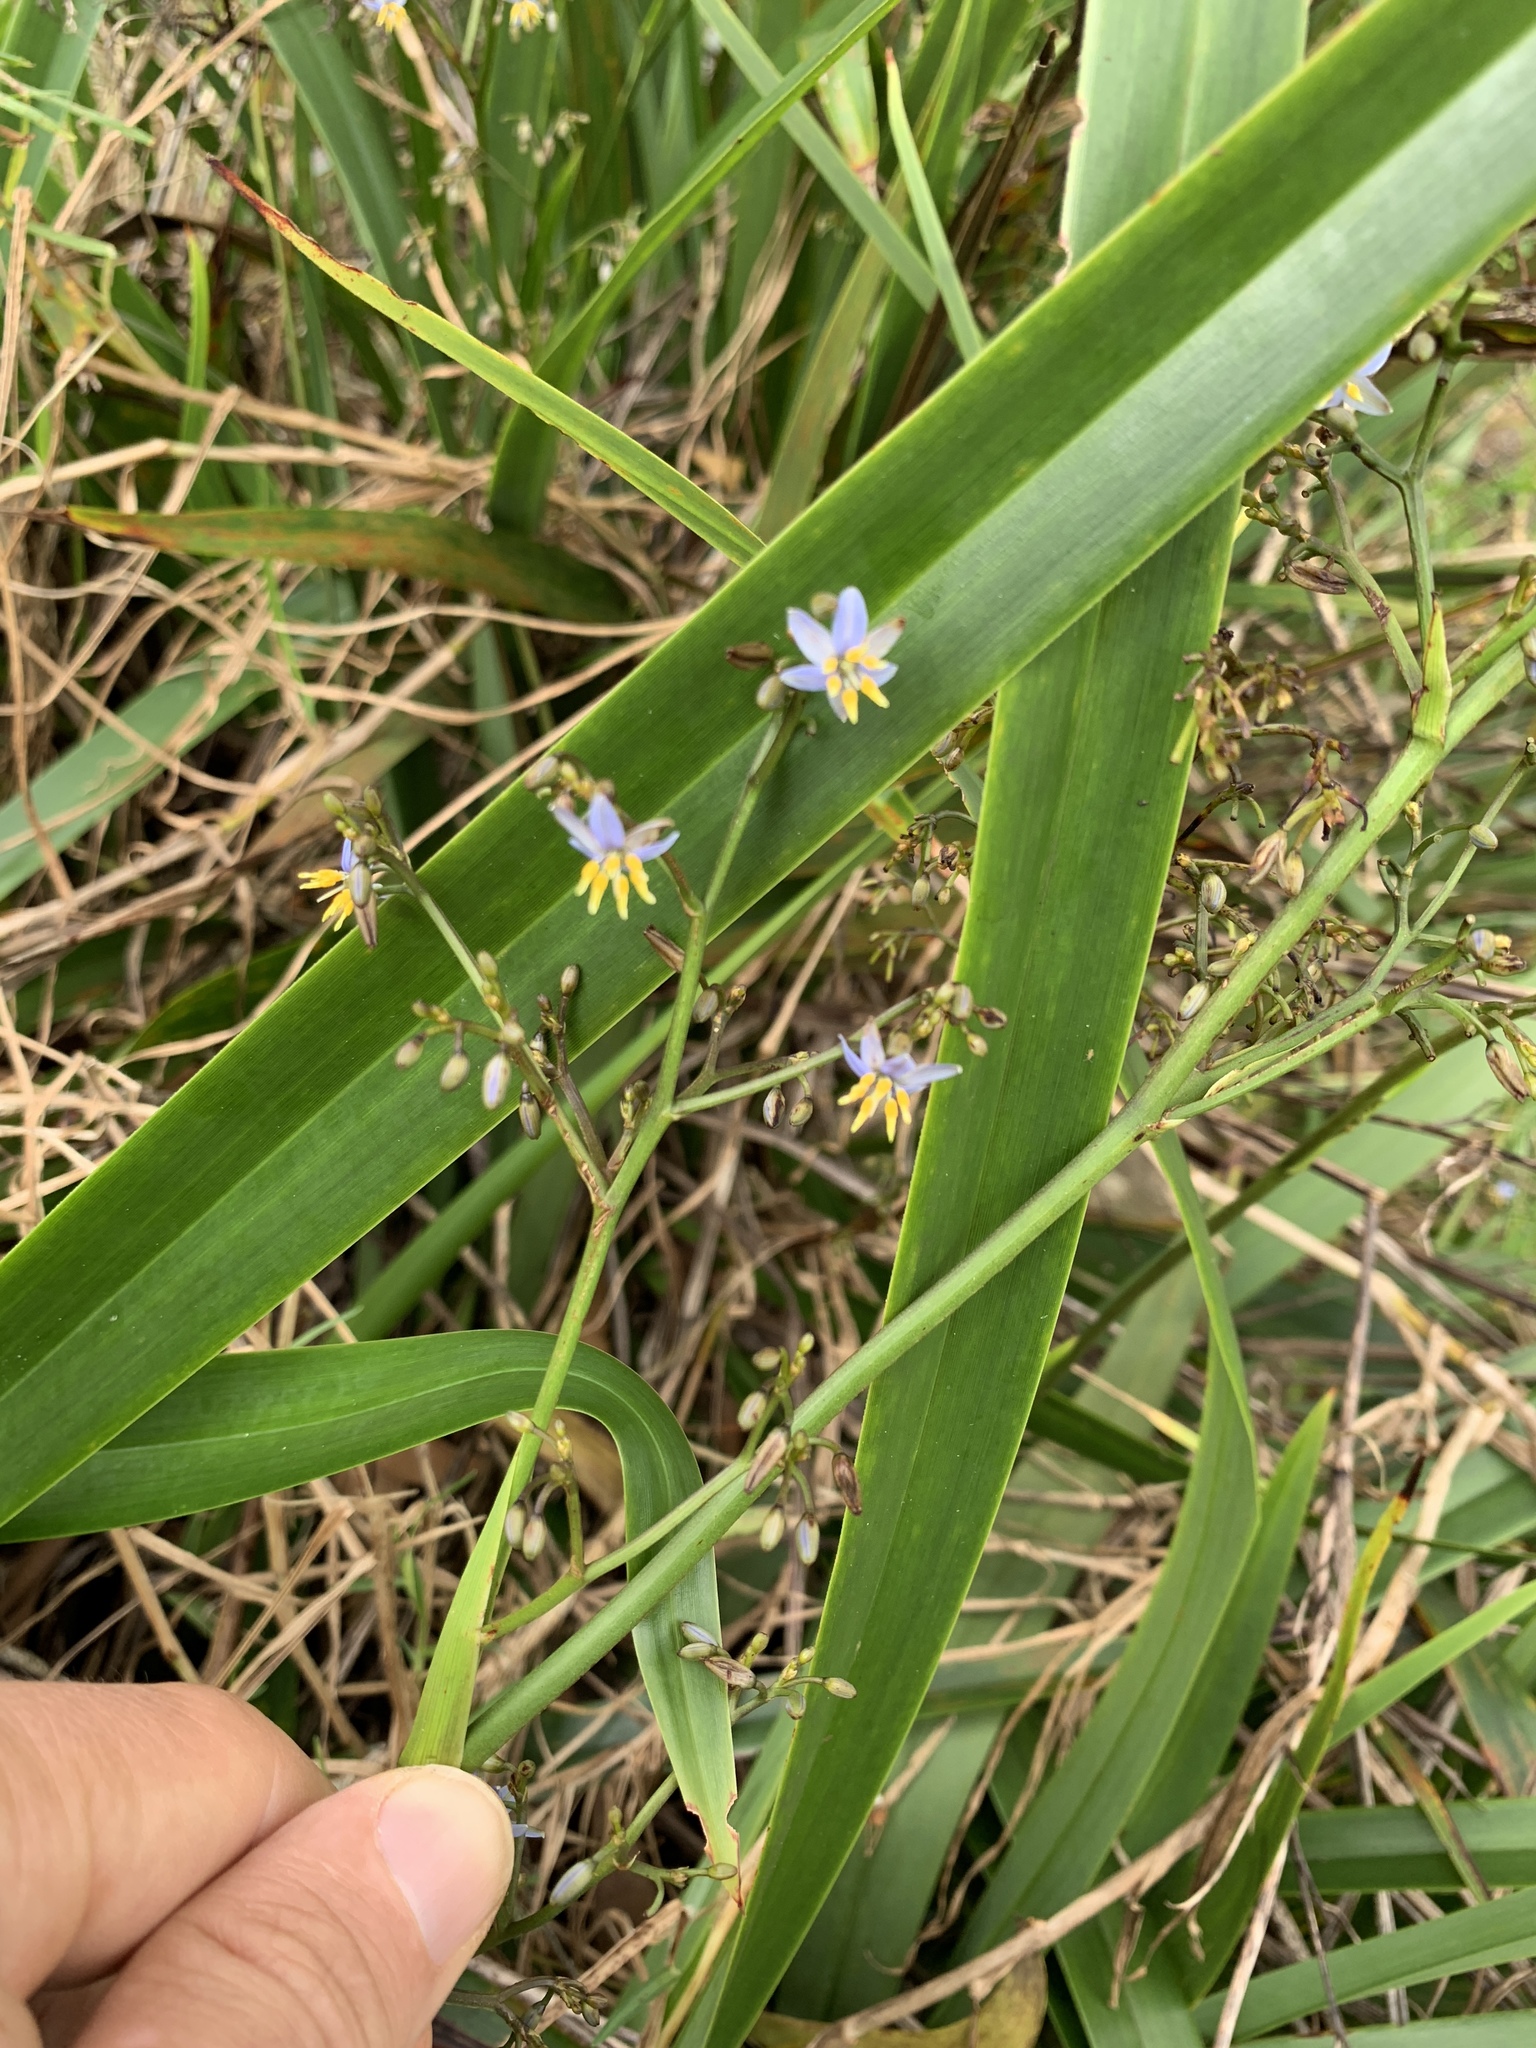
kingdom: Plantae
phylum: Tracheophyta
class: Liliopsida
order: Asparagales
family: Asphodelaceae
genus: Dianella
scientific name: Dianella sandwicensis
